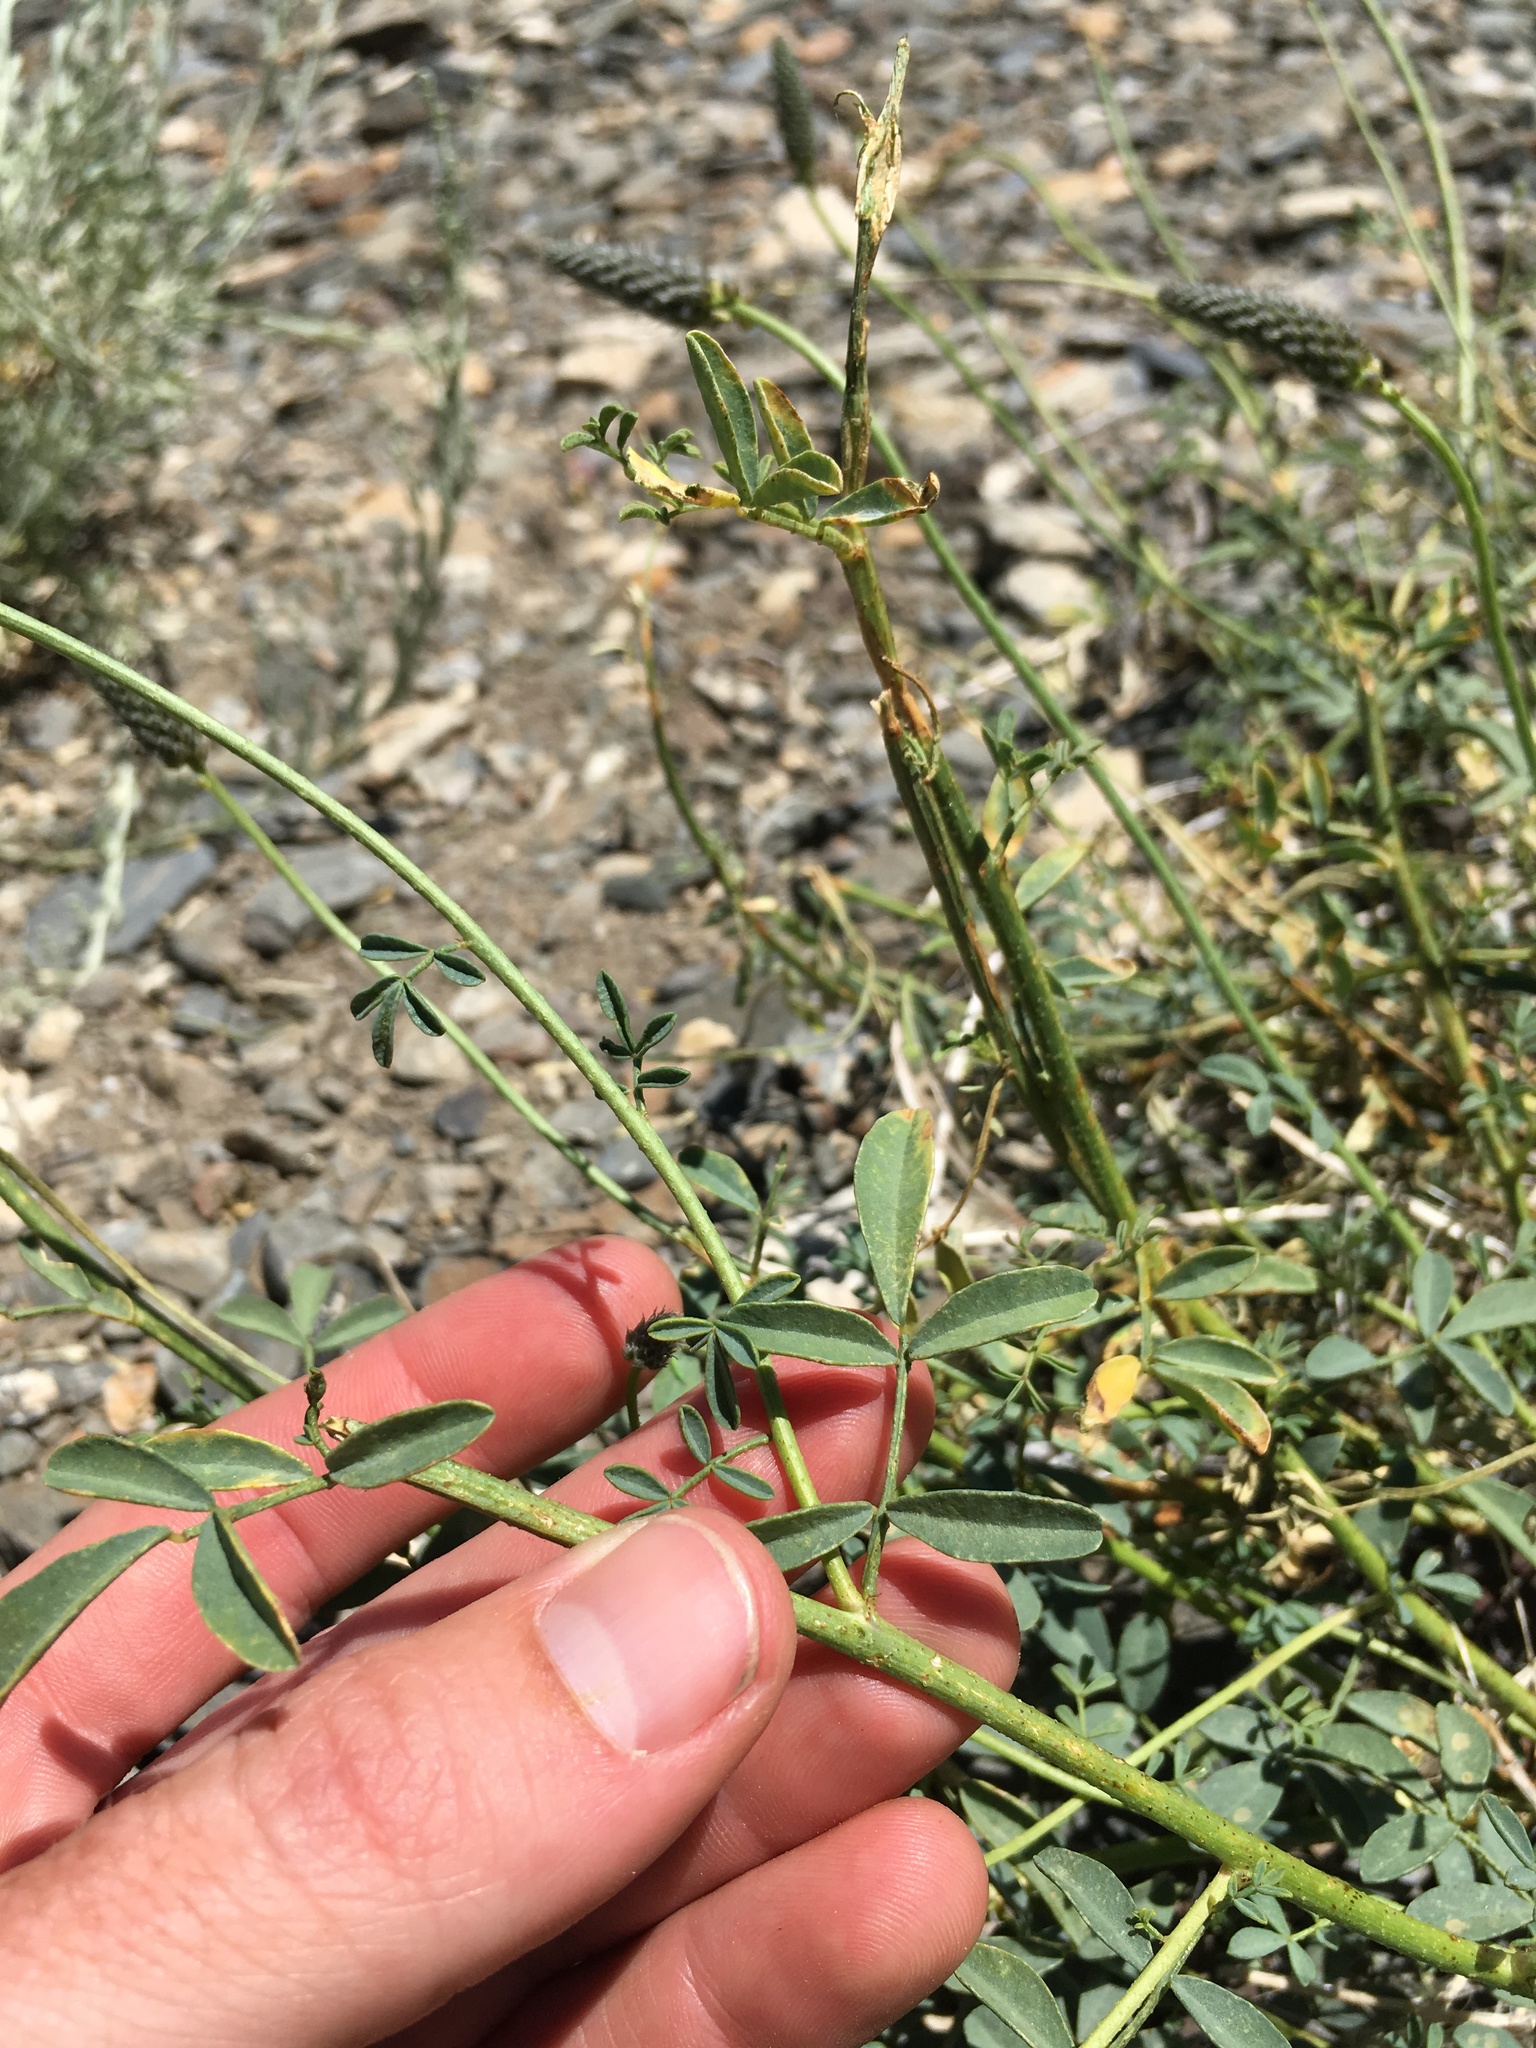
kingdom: Plantae
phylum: Tracheophyta
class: Magnoliopsida
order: Fabales
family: Fabaceae
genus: Dalea
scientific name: Dalea searlsiae
